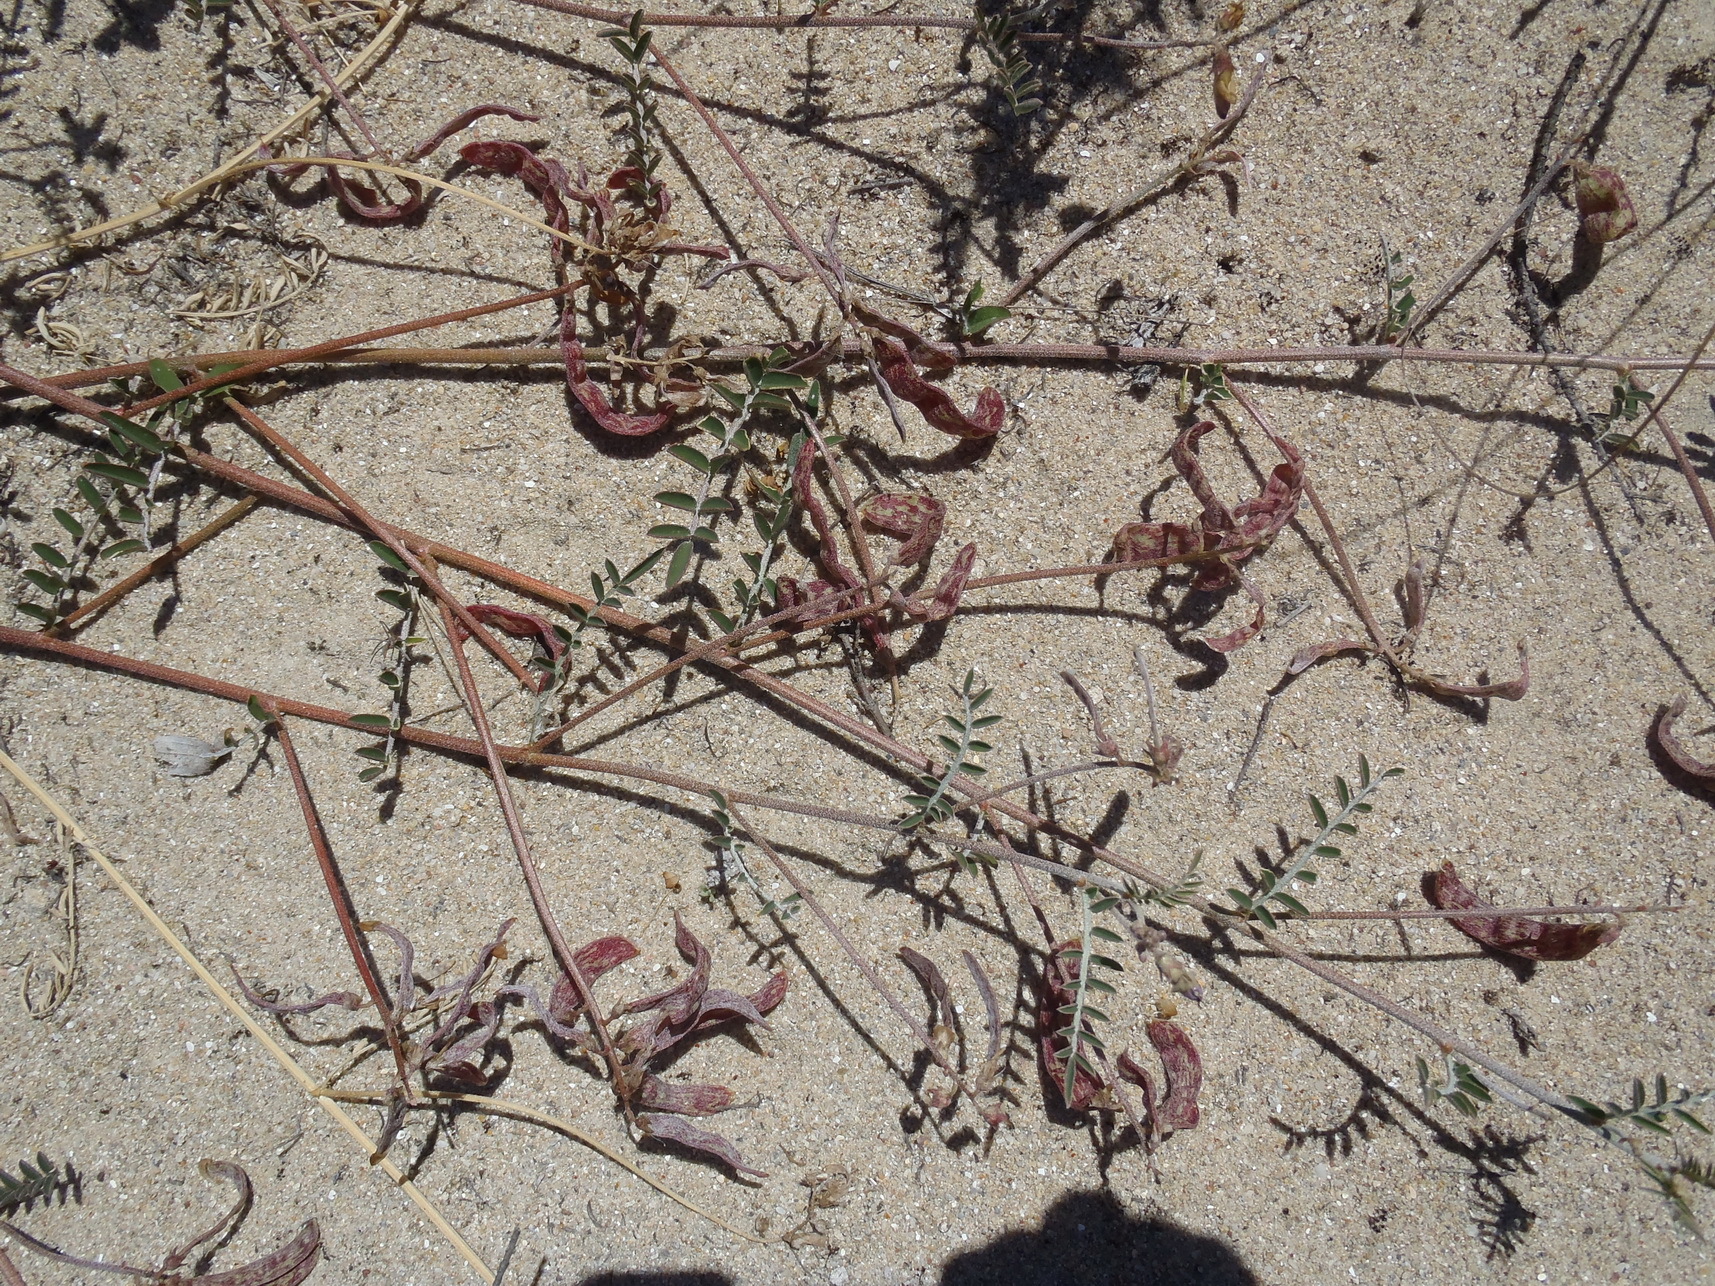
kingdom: Plantae
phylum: Tracheophyta
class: Magnoliopsida
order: Fabales
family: Fabaceae
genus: Lessertia
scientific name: Lessertia diffusa
